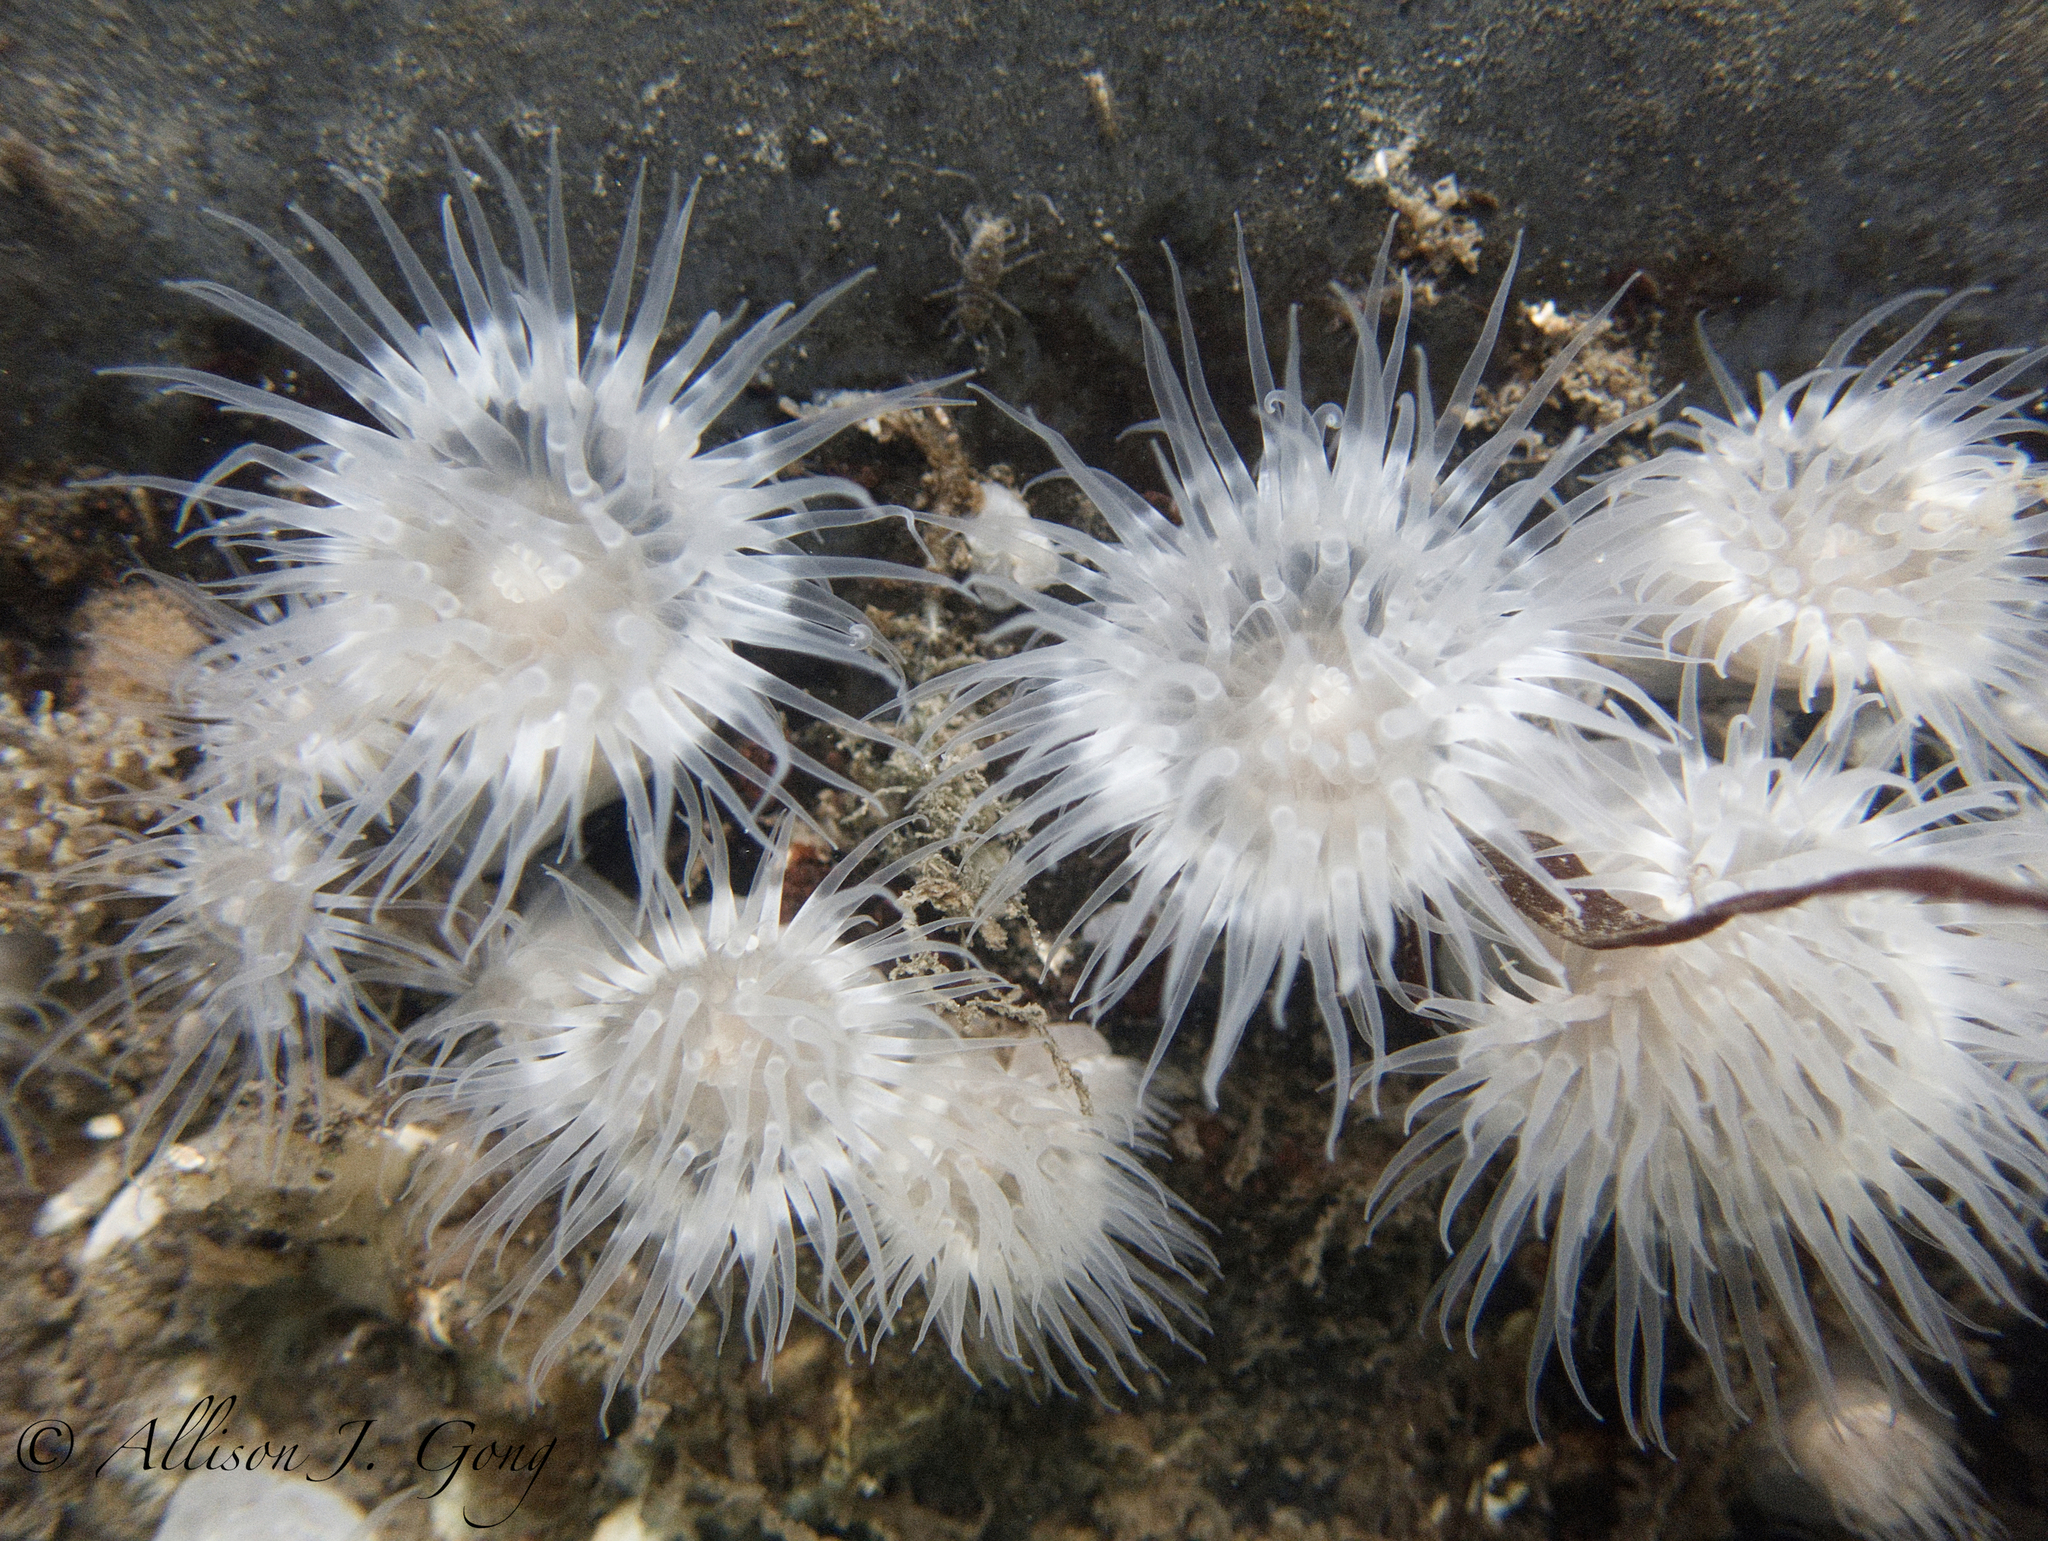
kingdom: Animalia
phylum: Cnidaria
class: Anthozoa
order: Actiniaria
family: Metridiidae
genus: Metridium
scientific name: Metridium senile
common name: Clonal plumose anemone
